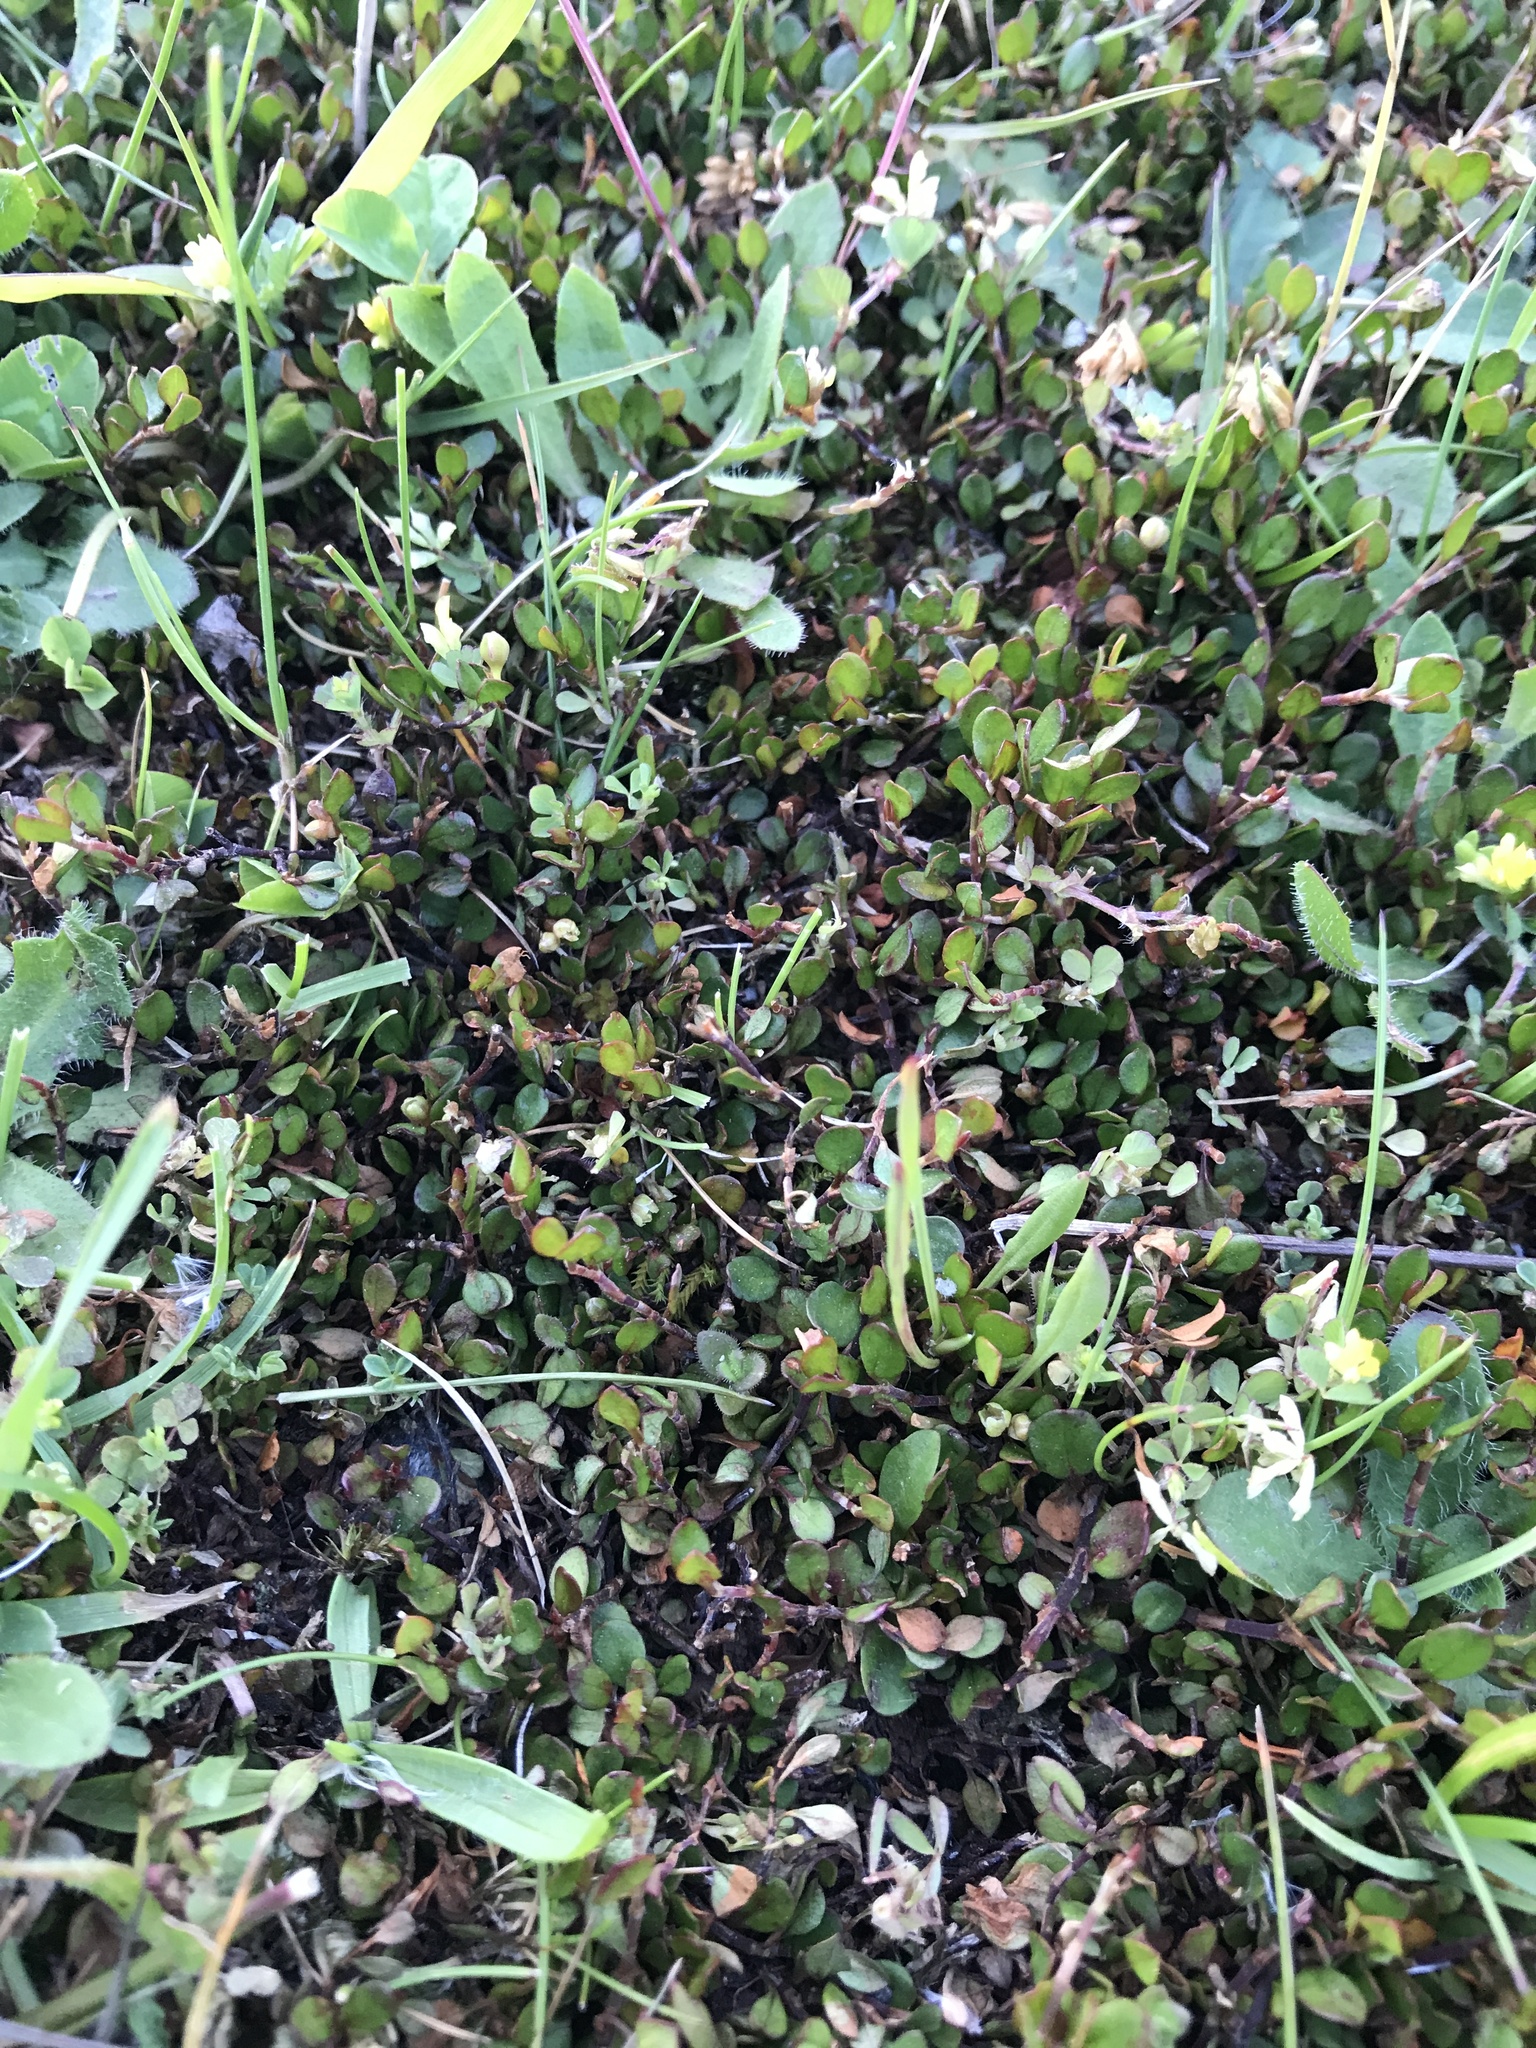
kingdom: Plantae
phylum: Tracheophyta
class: Magnoliopsida
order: Caryophyllales
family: Polygonaceae
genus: Muehlenbeckia
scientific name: Muehlenbeckia axillaris
